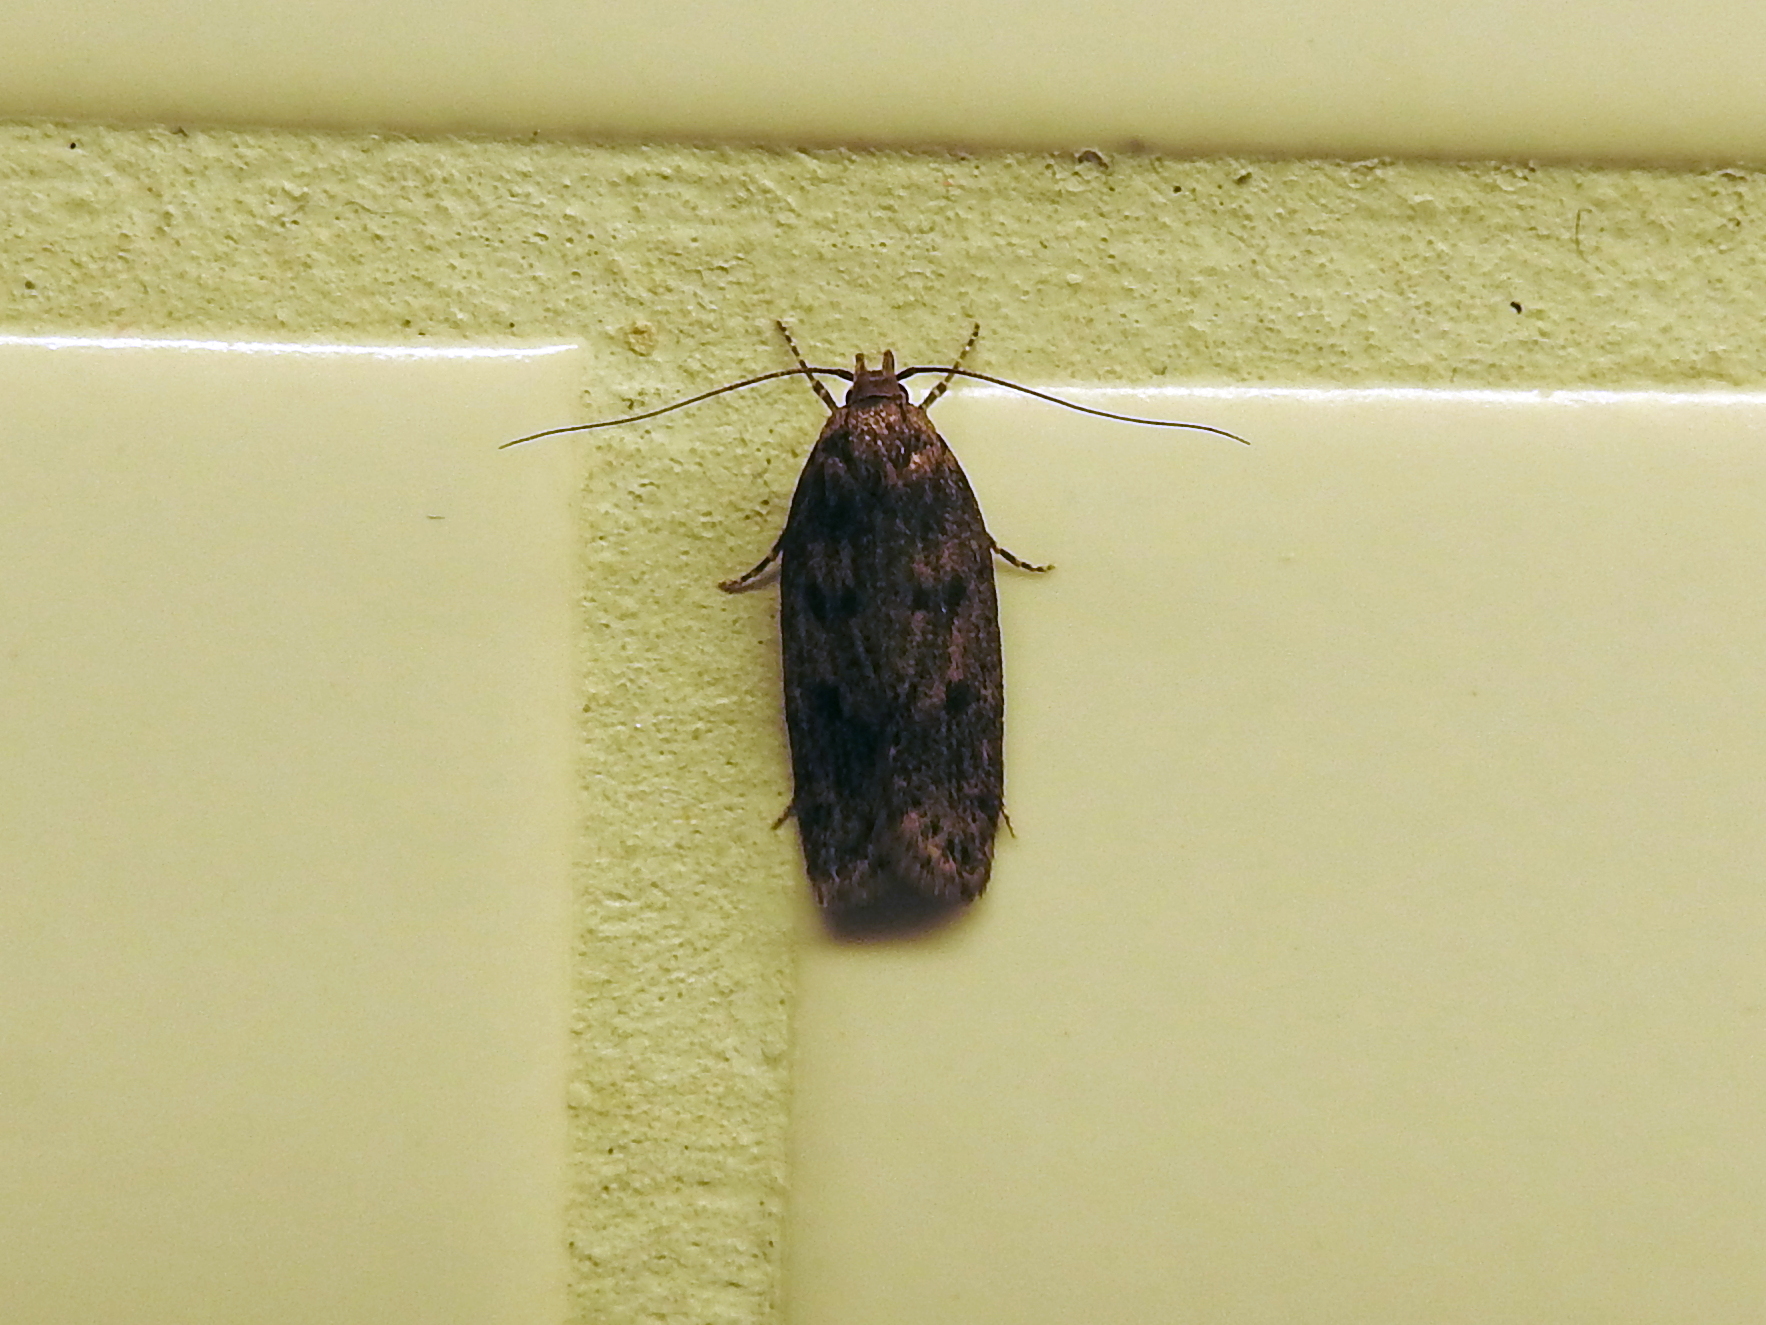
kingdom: Animalia
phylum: Arthropoda
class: Insecta
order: Lepidoptera
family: Oecophoridae
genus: Hofmannophila
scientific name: Hofmannophila pseudospretella
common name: Brown house moth
